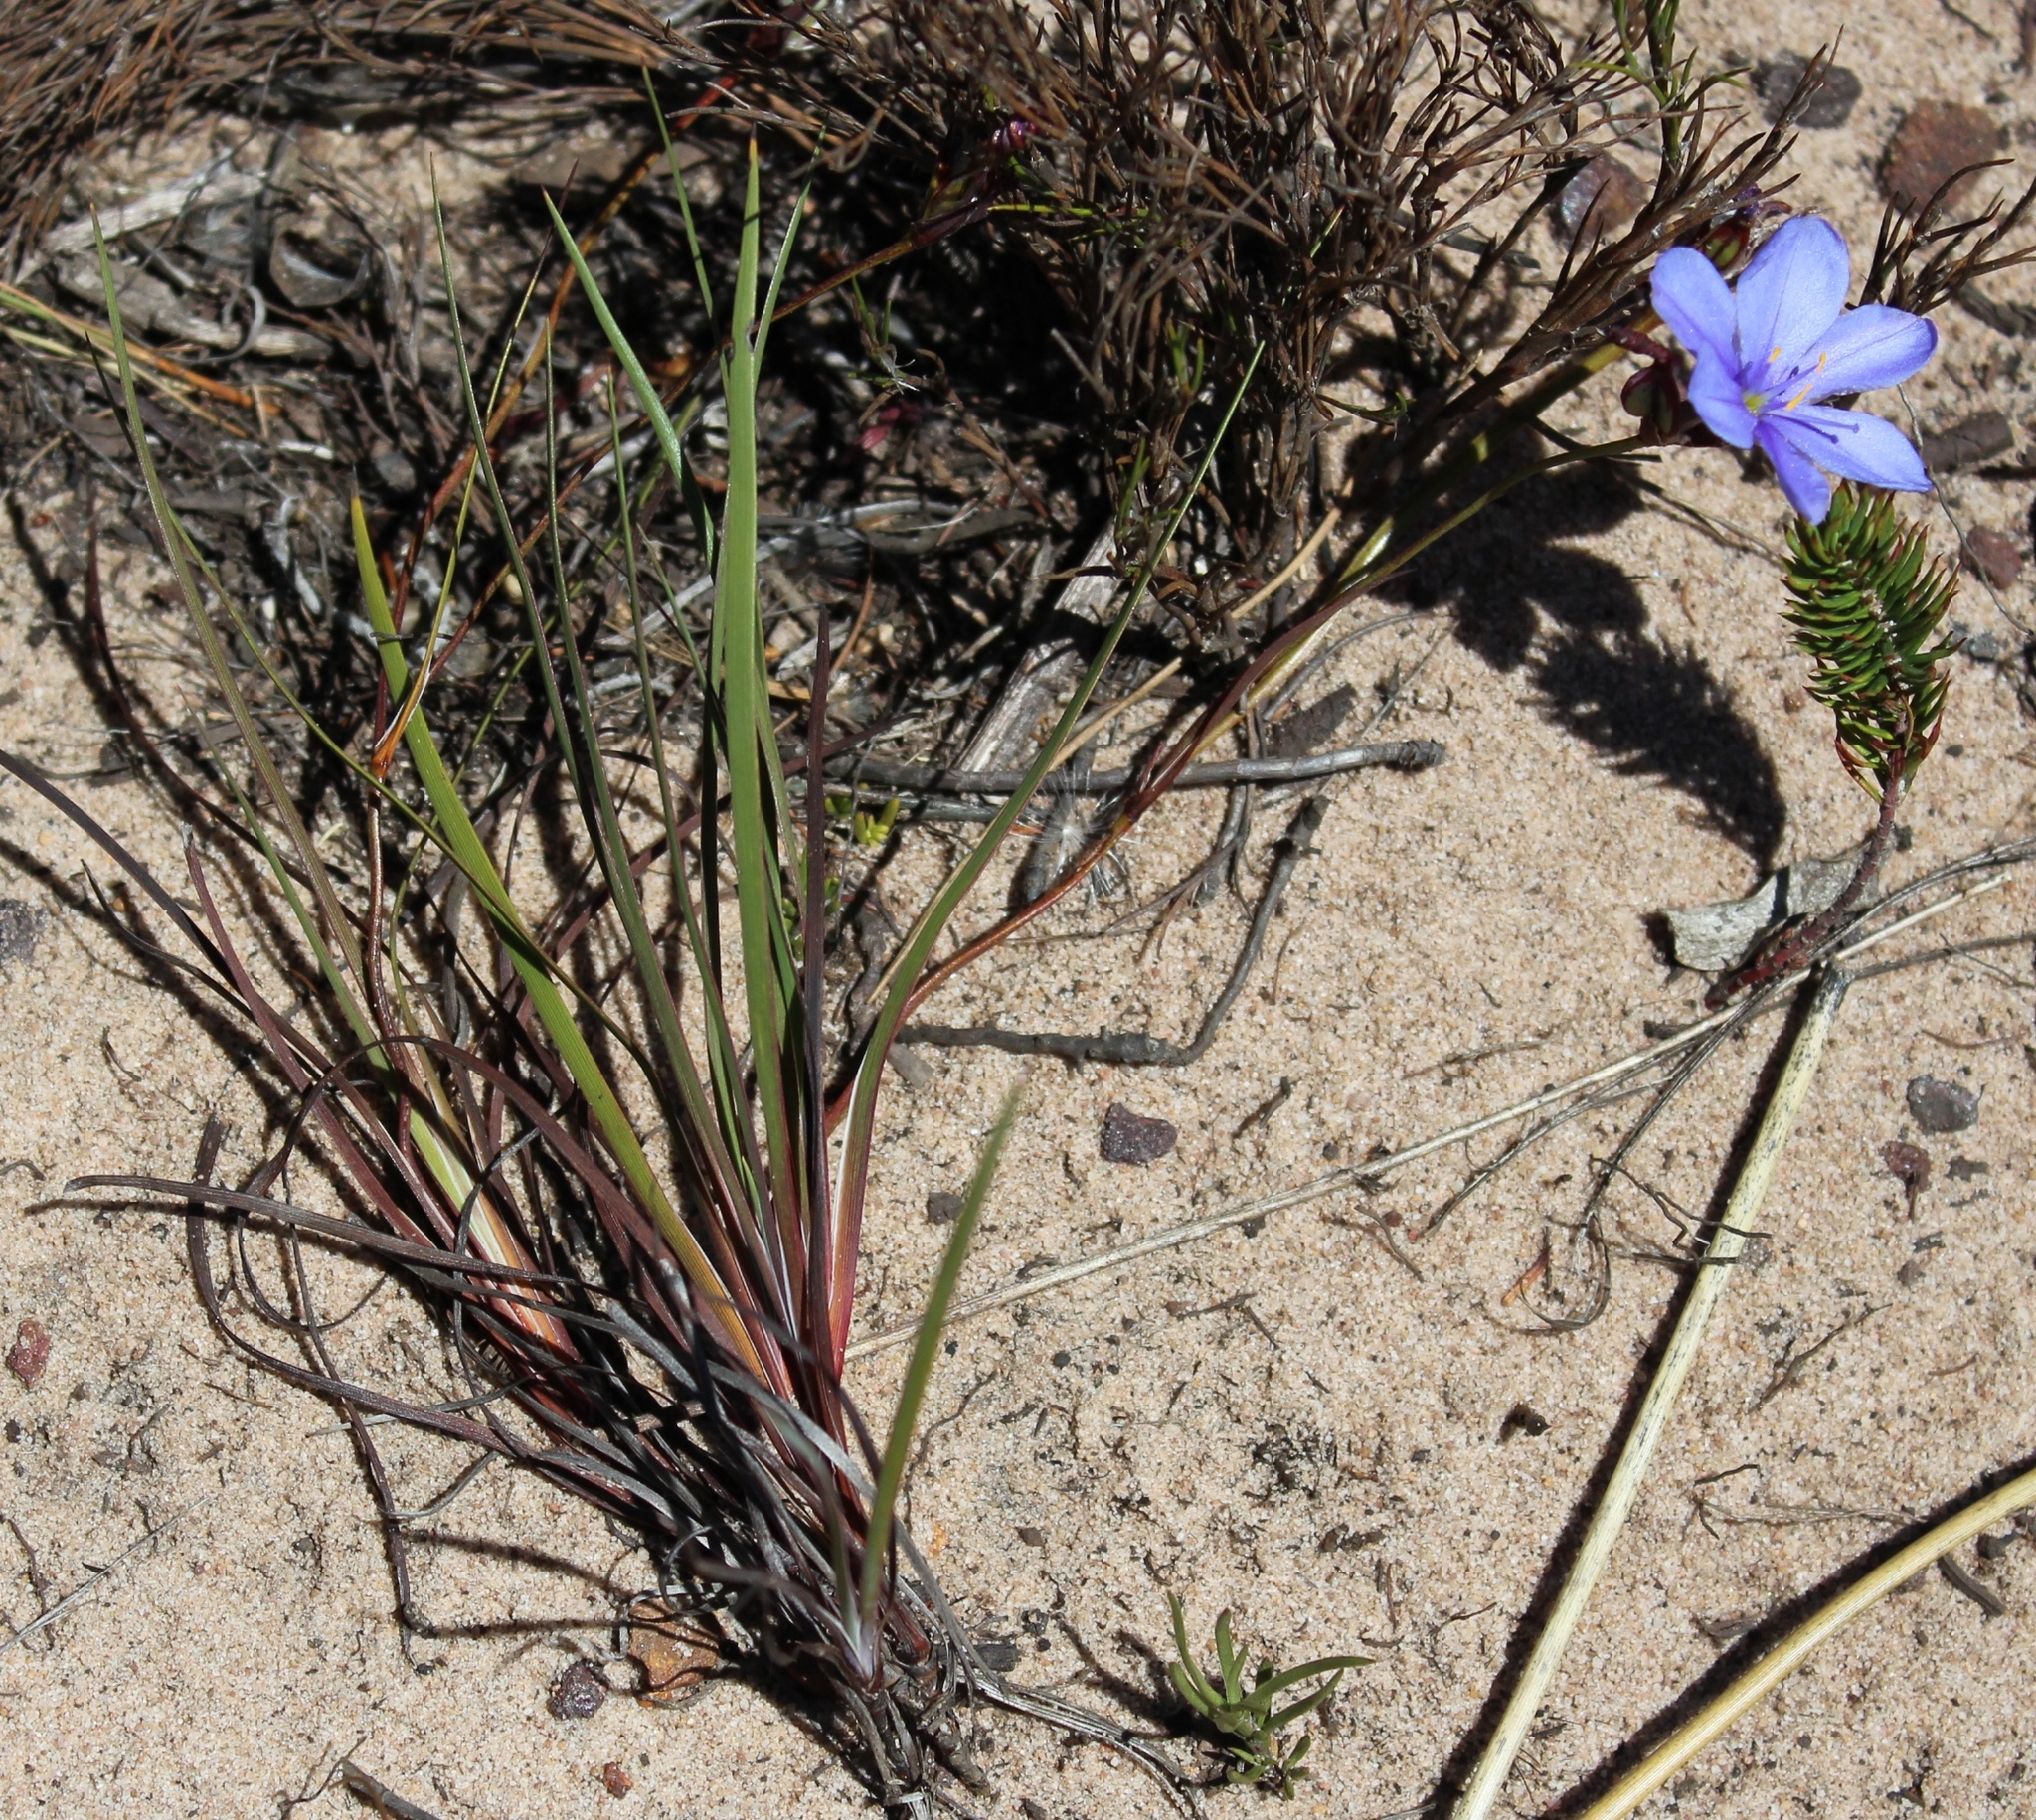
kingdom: Plantae
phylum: Tracheophyta
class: Liliopsida
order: Asparagales
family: Iridaceae
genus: Aristea
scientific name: Aristea africana
